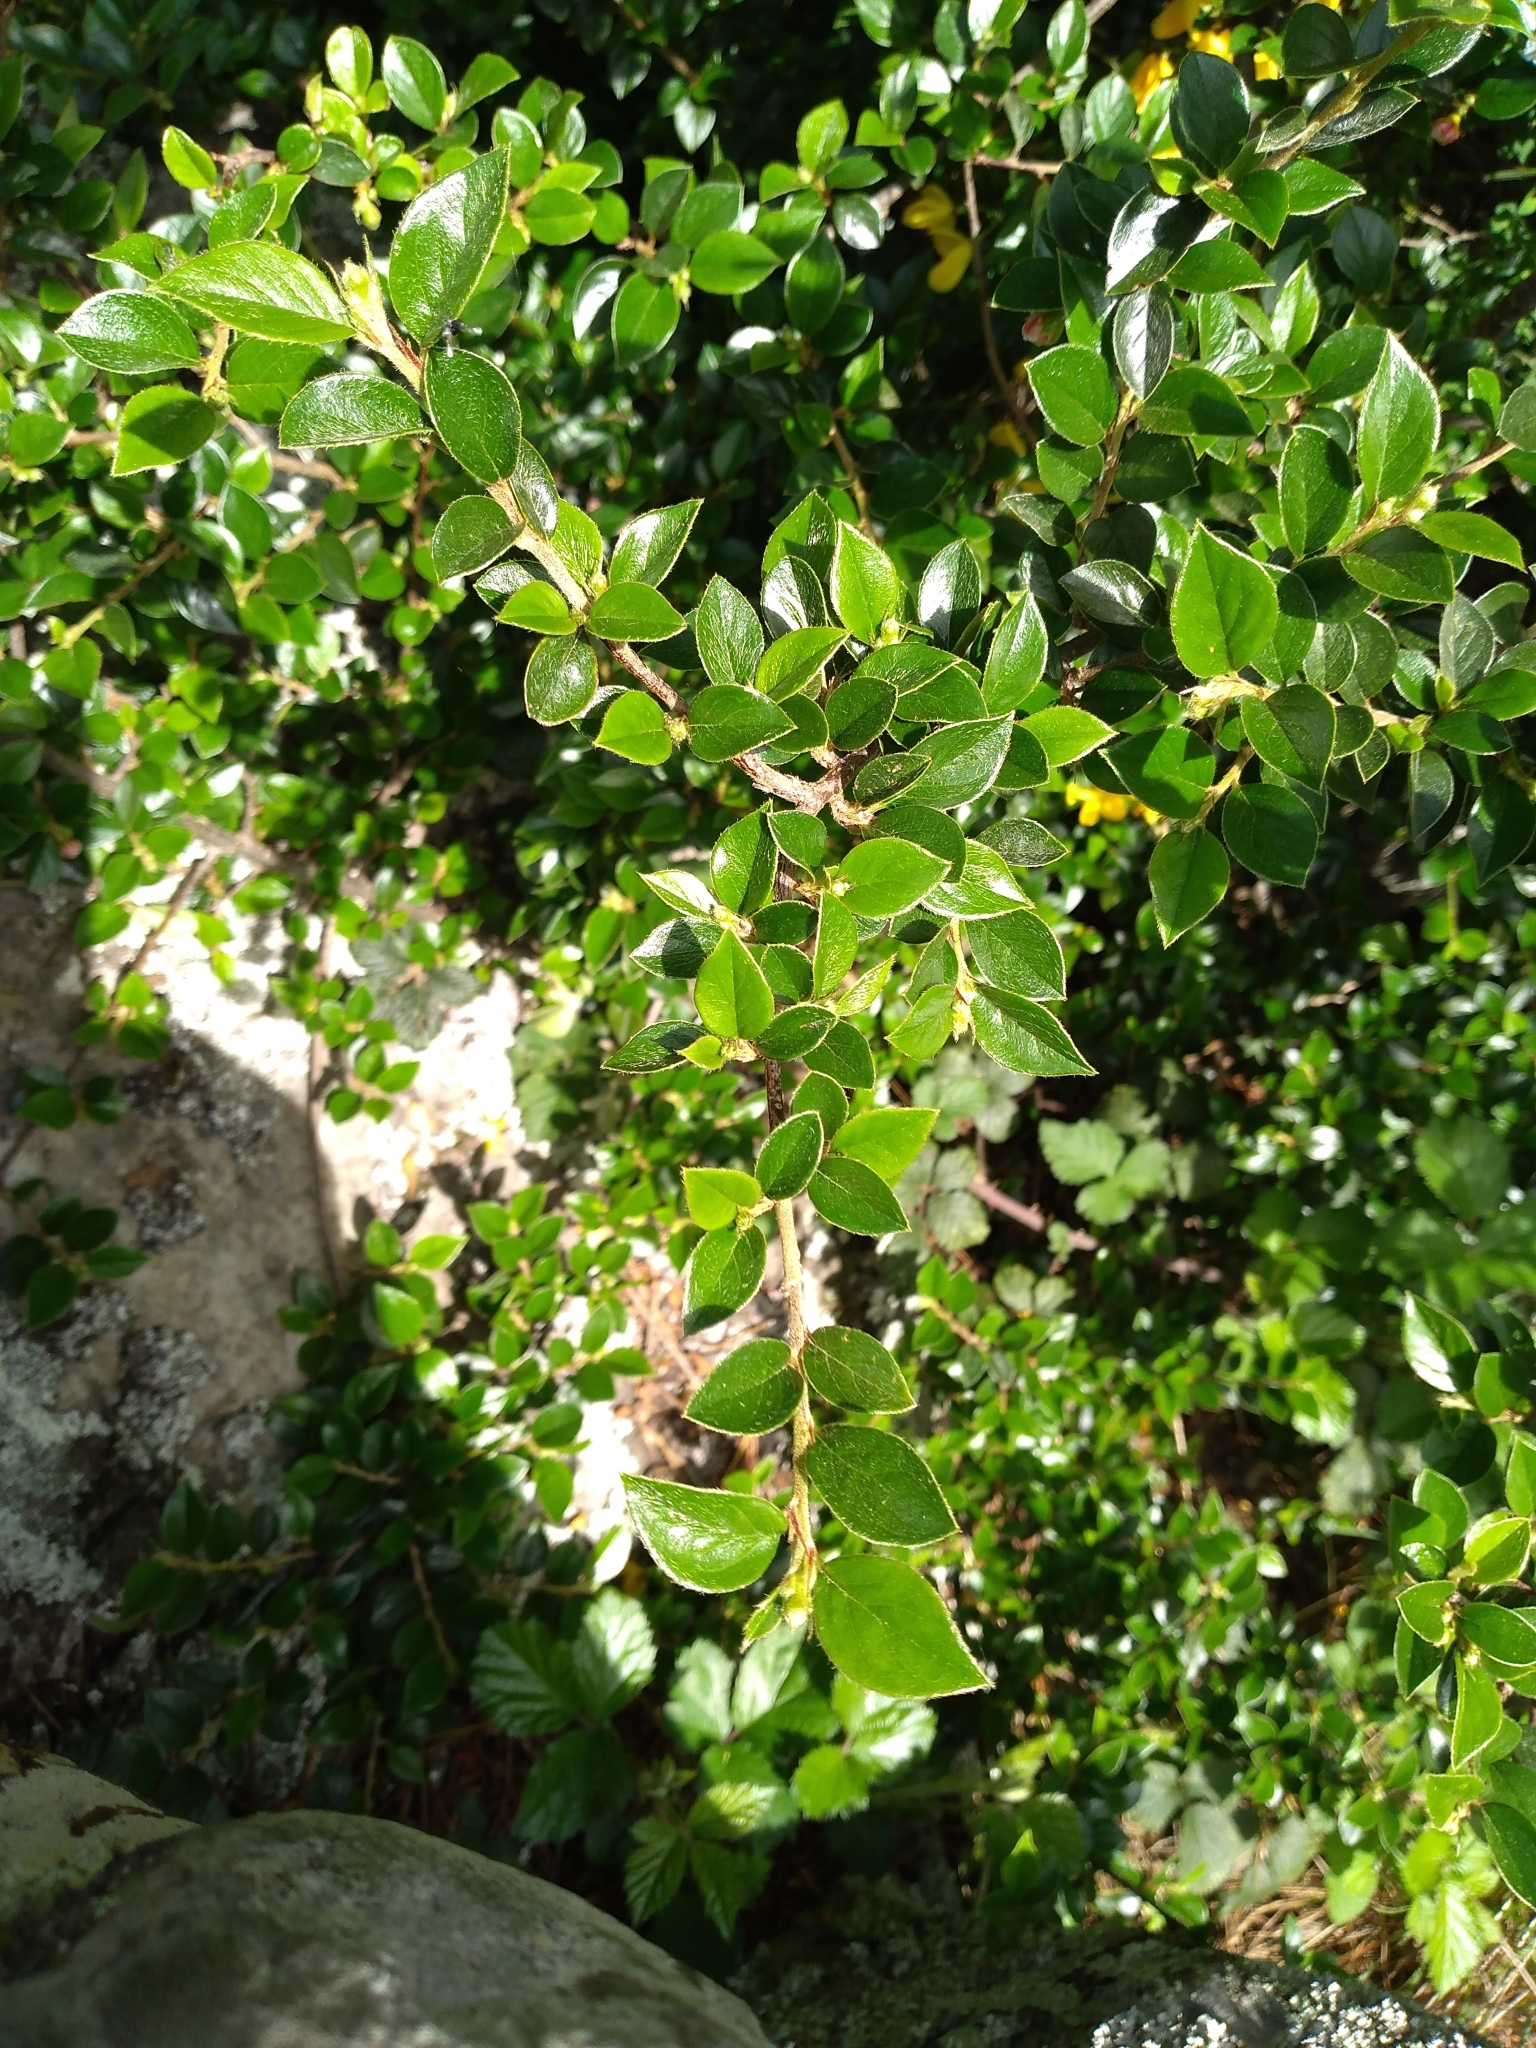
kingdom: Plantae
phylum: Tracheophyta
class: Magnoliopsida
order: Rosales
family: Rosaceae
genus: Cotoneaster
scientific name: Cotoneaster simonsii
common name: Himalayan cotoneaster
